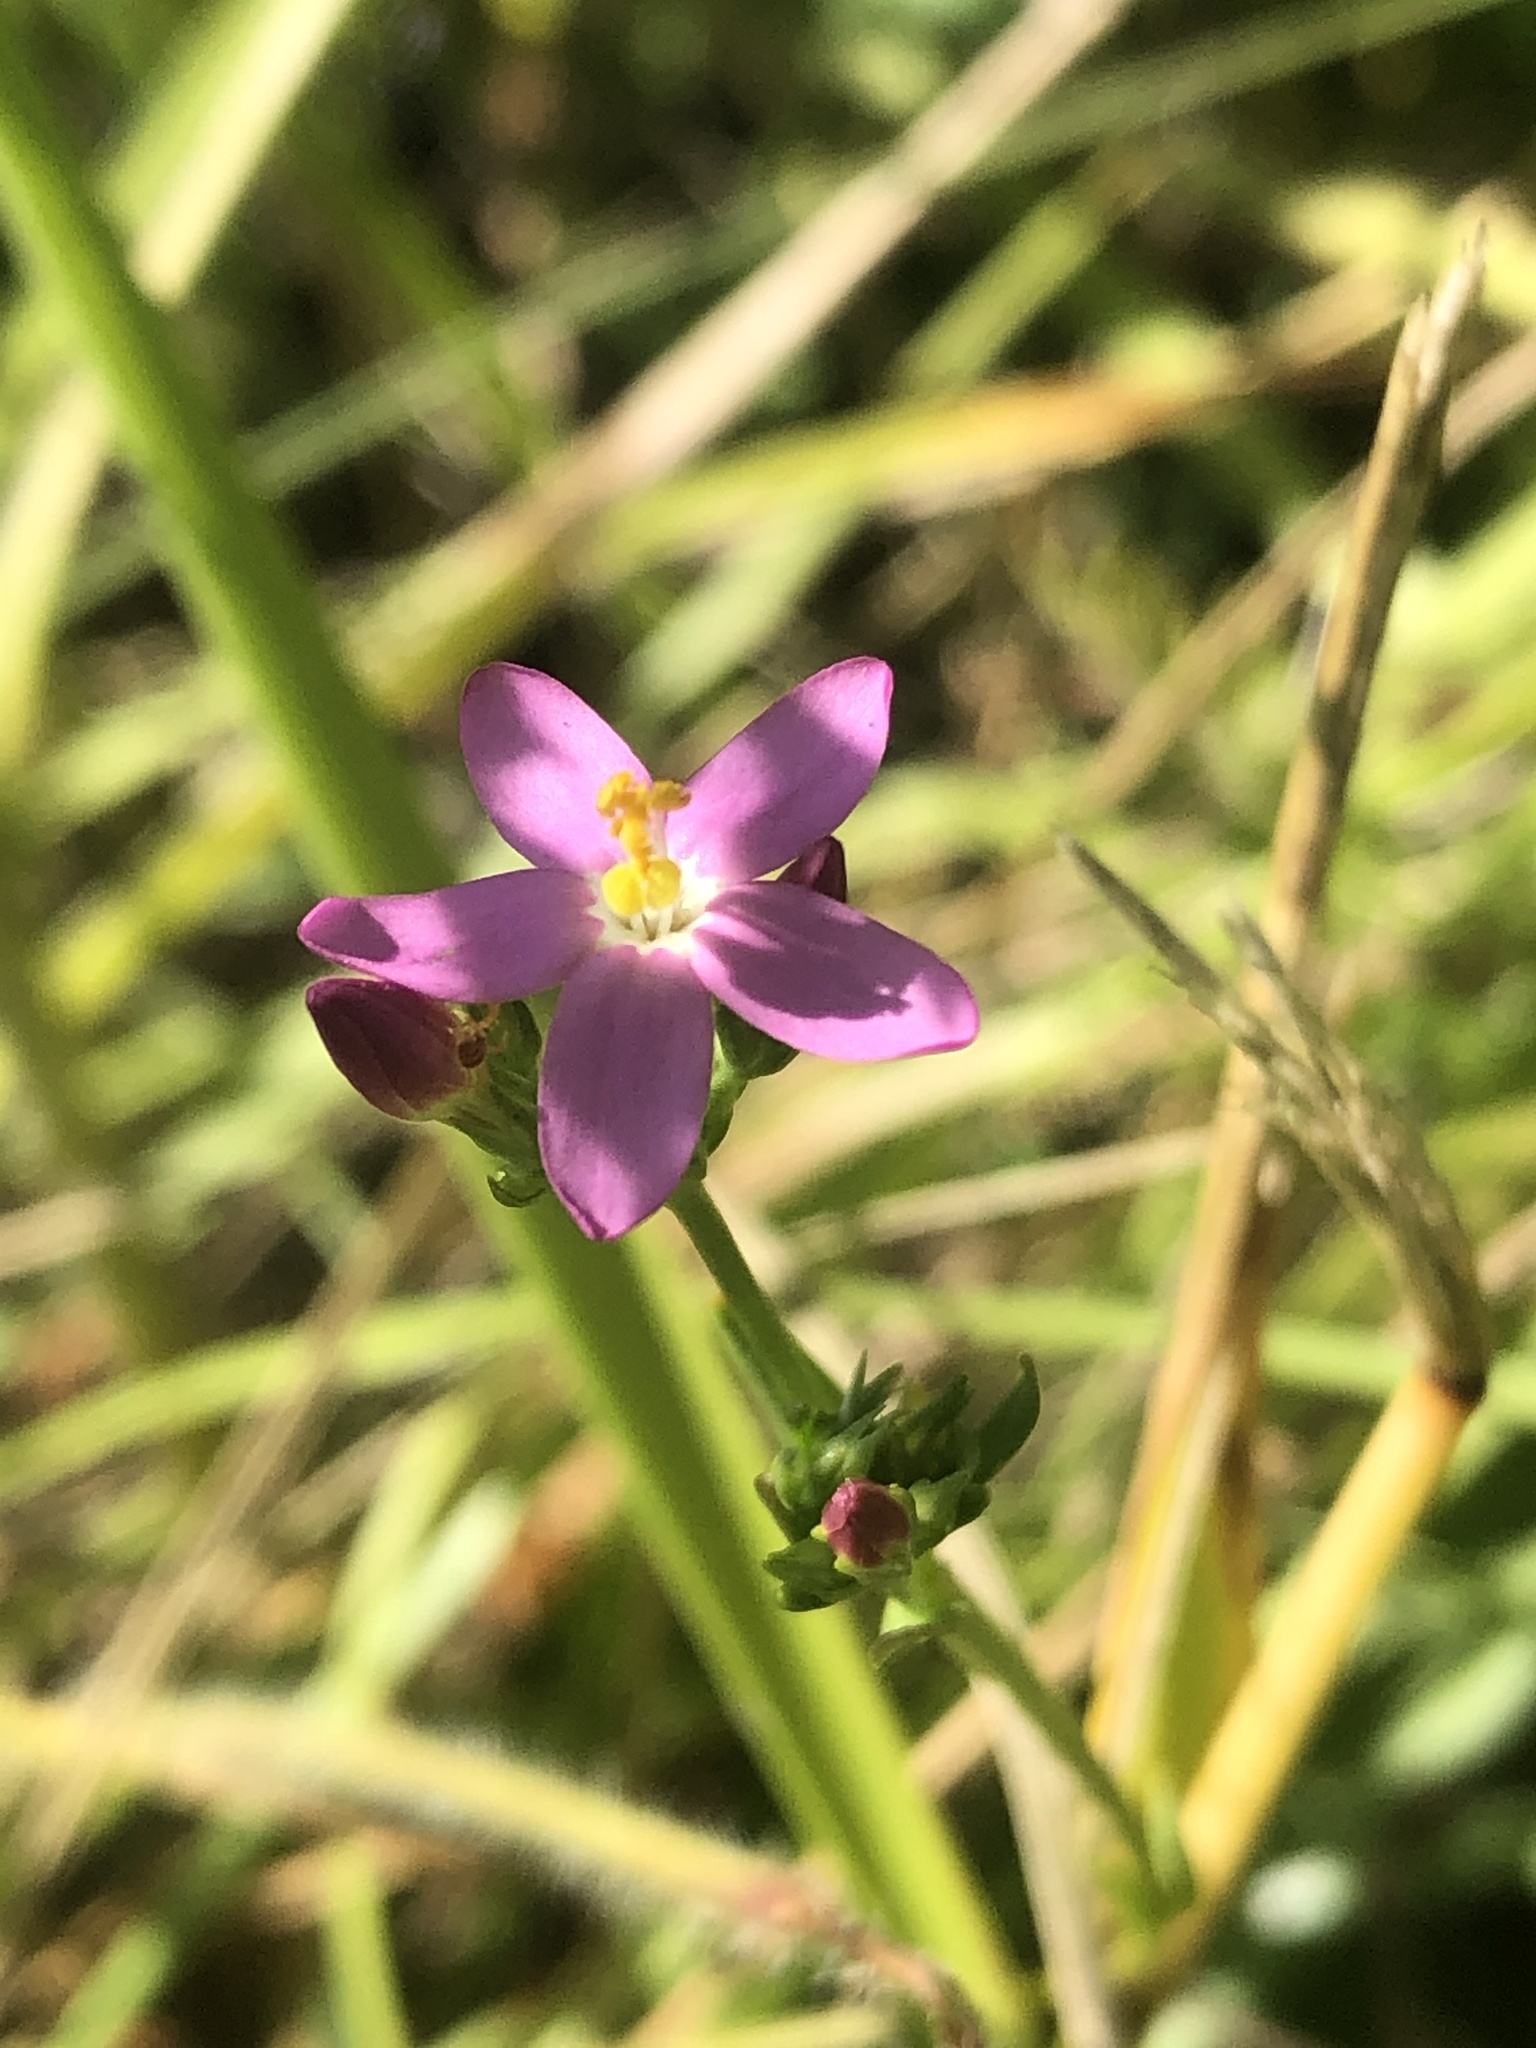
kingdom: Plantae
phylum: Tracheophyta
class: Magnoliopsida
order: Gentianales
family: Gentianaceae
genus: Centaurium
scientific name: Centaurium erythraea
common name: Common centaury
